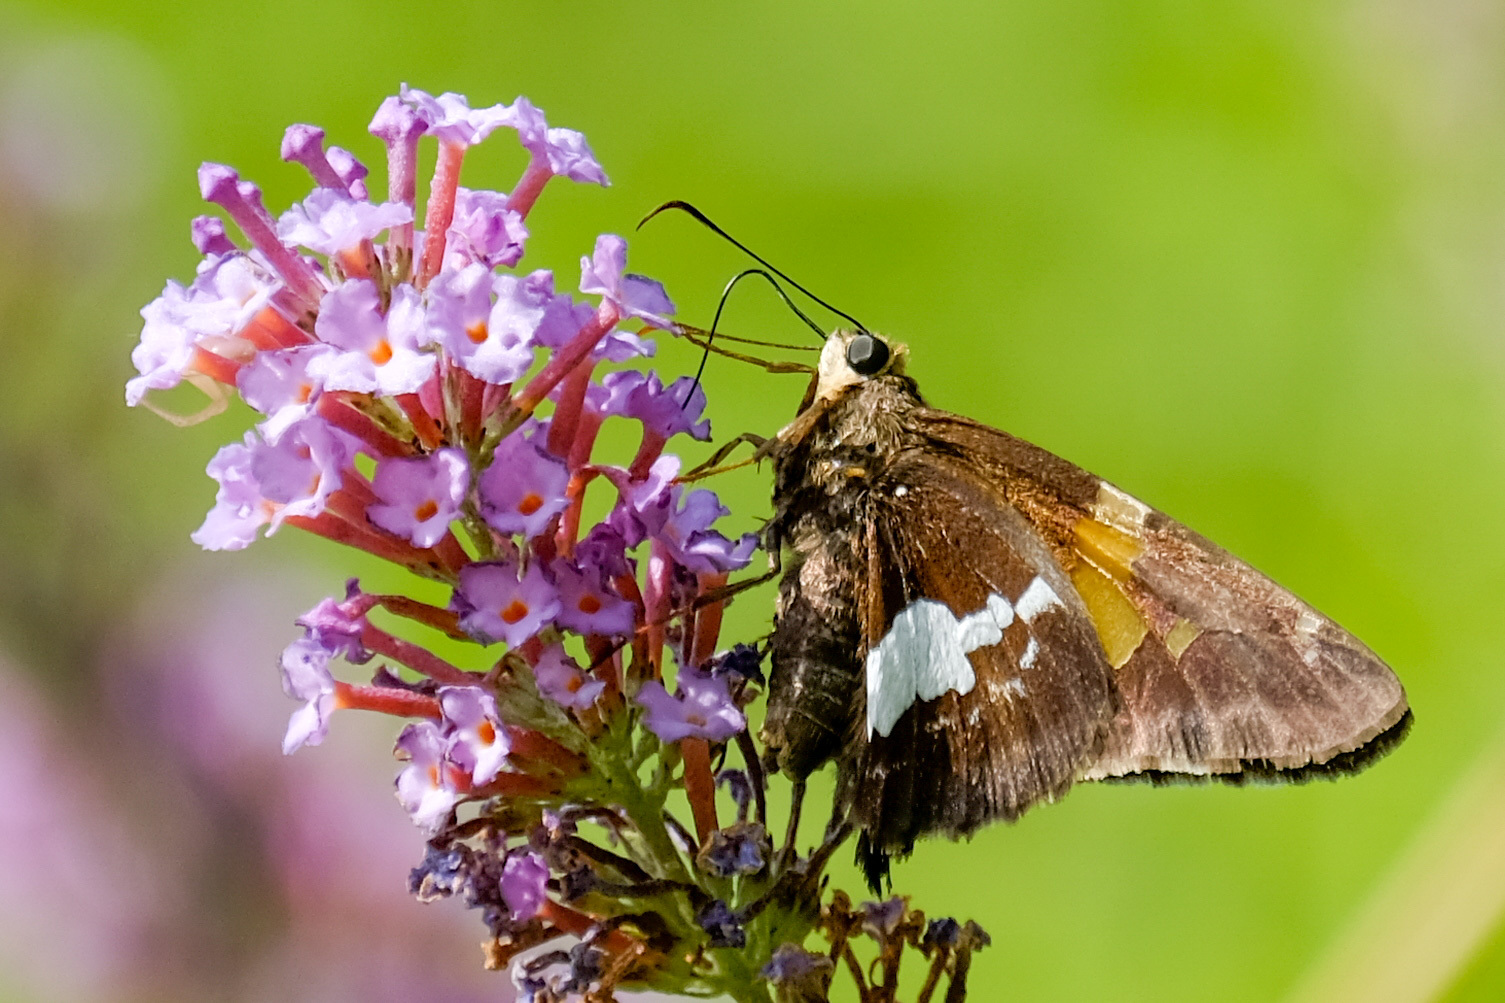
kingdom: Animalia
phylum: Arthropoda
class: Insecta
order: Lepidoptera
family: Hesperiidae
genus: Epargyreus
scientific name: Epargyreus clarus
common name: Silver-spotted skipper
